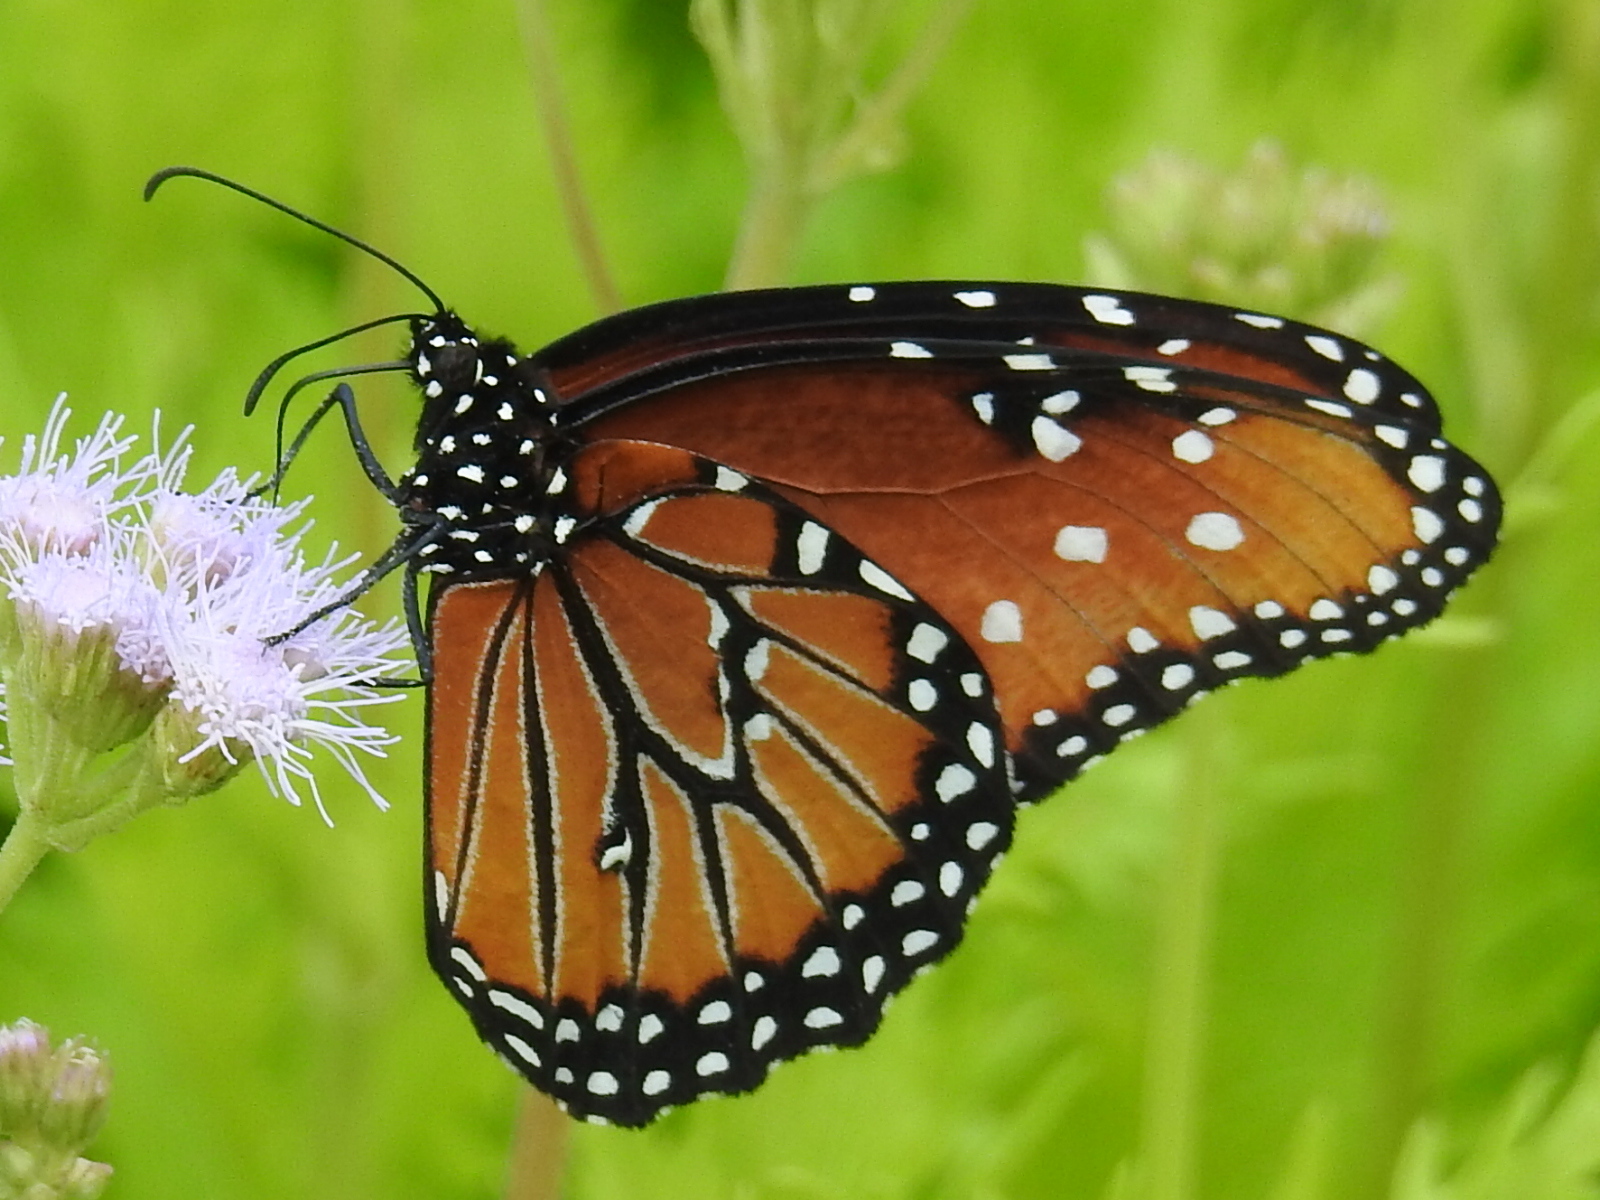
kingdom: Animalia
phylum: Arthropoda
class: Insecta
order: Lepidoptera
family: Nymphalidae
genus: Danaus
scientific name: Danaus gilippus
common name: Queen
